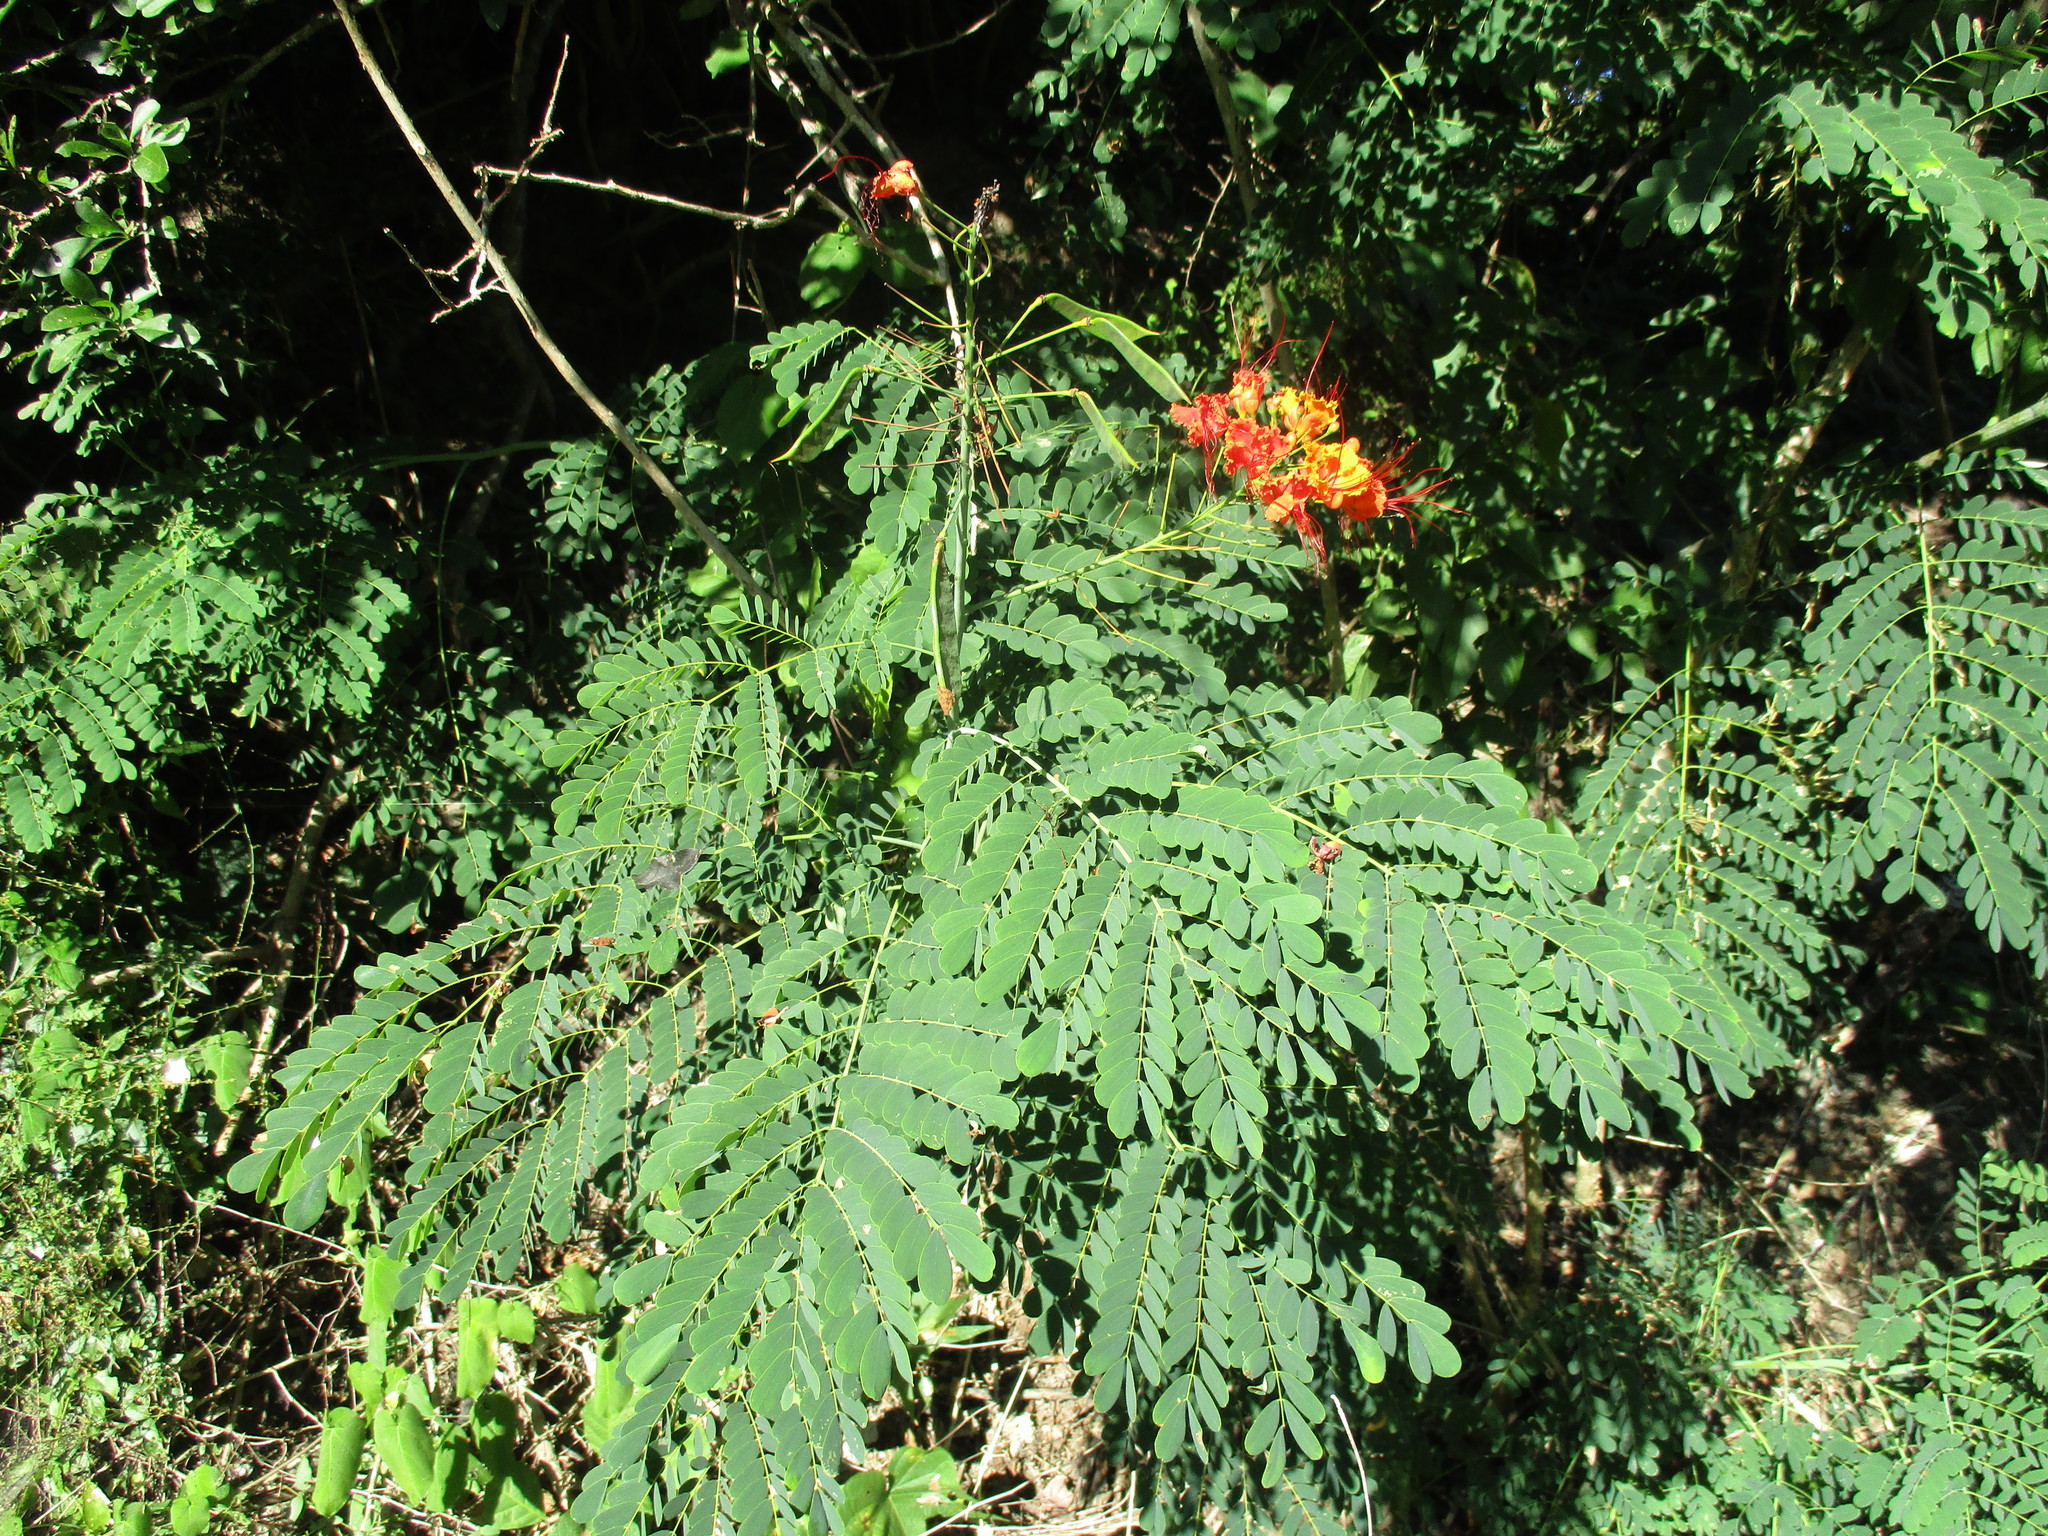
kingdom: Plantae
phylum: Tracheophyta
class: Magnoliopsida
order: Fabales
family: Fabaceae
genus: Caesalpinia
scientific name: Caesalpinia pulcherrima
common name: Pride-of-barbados
